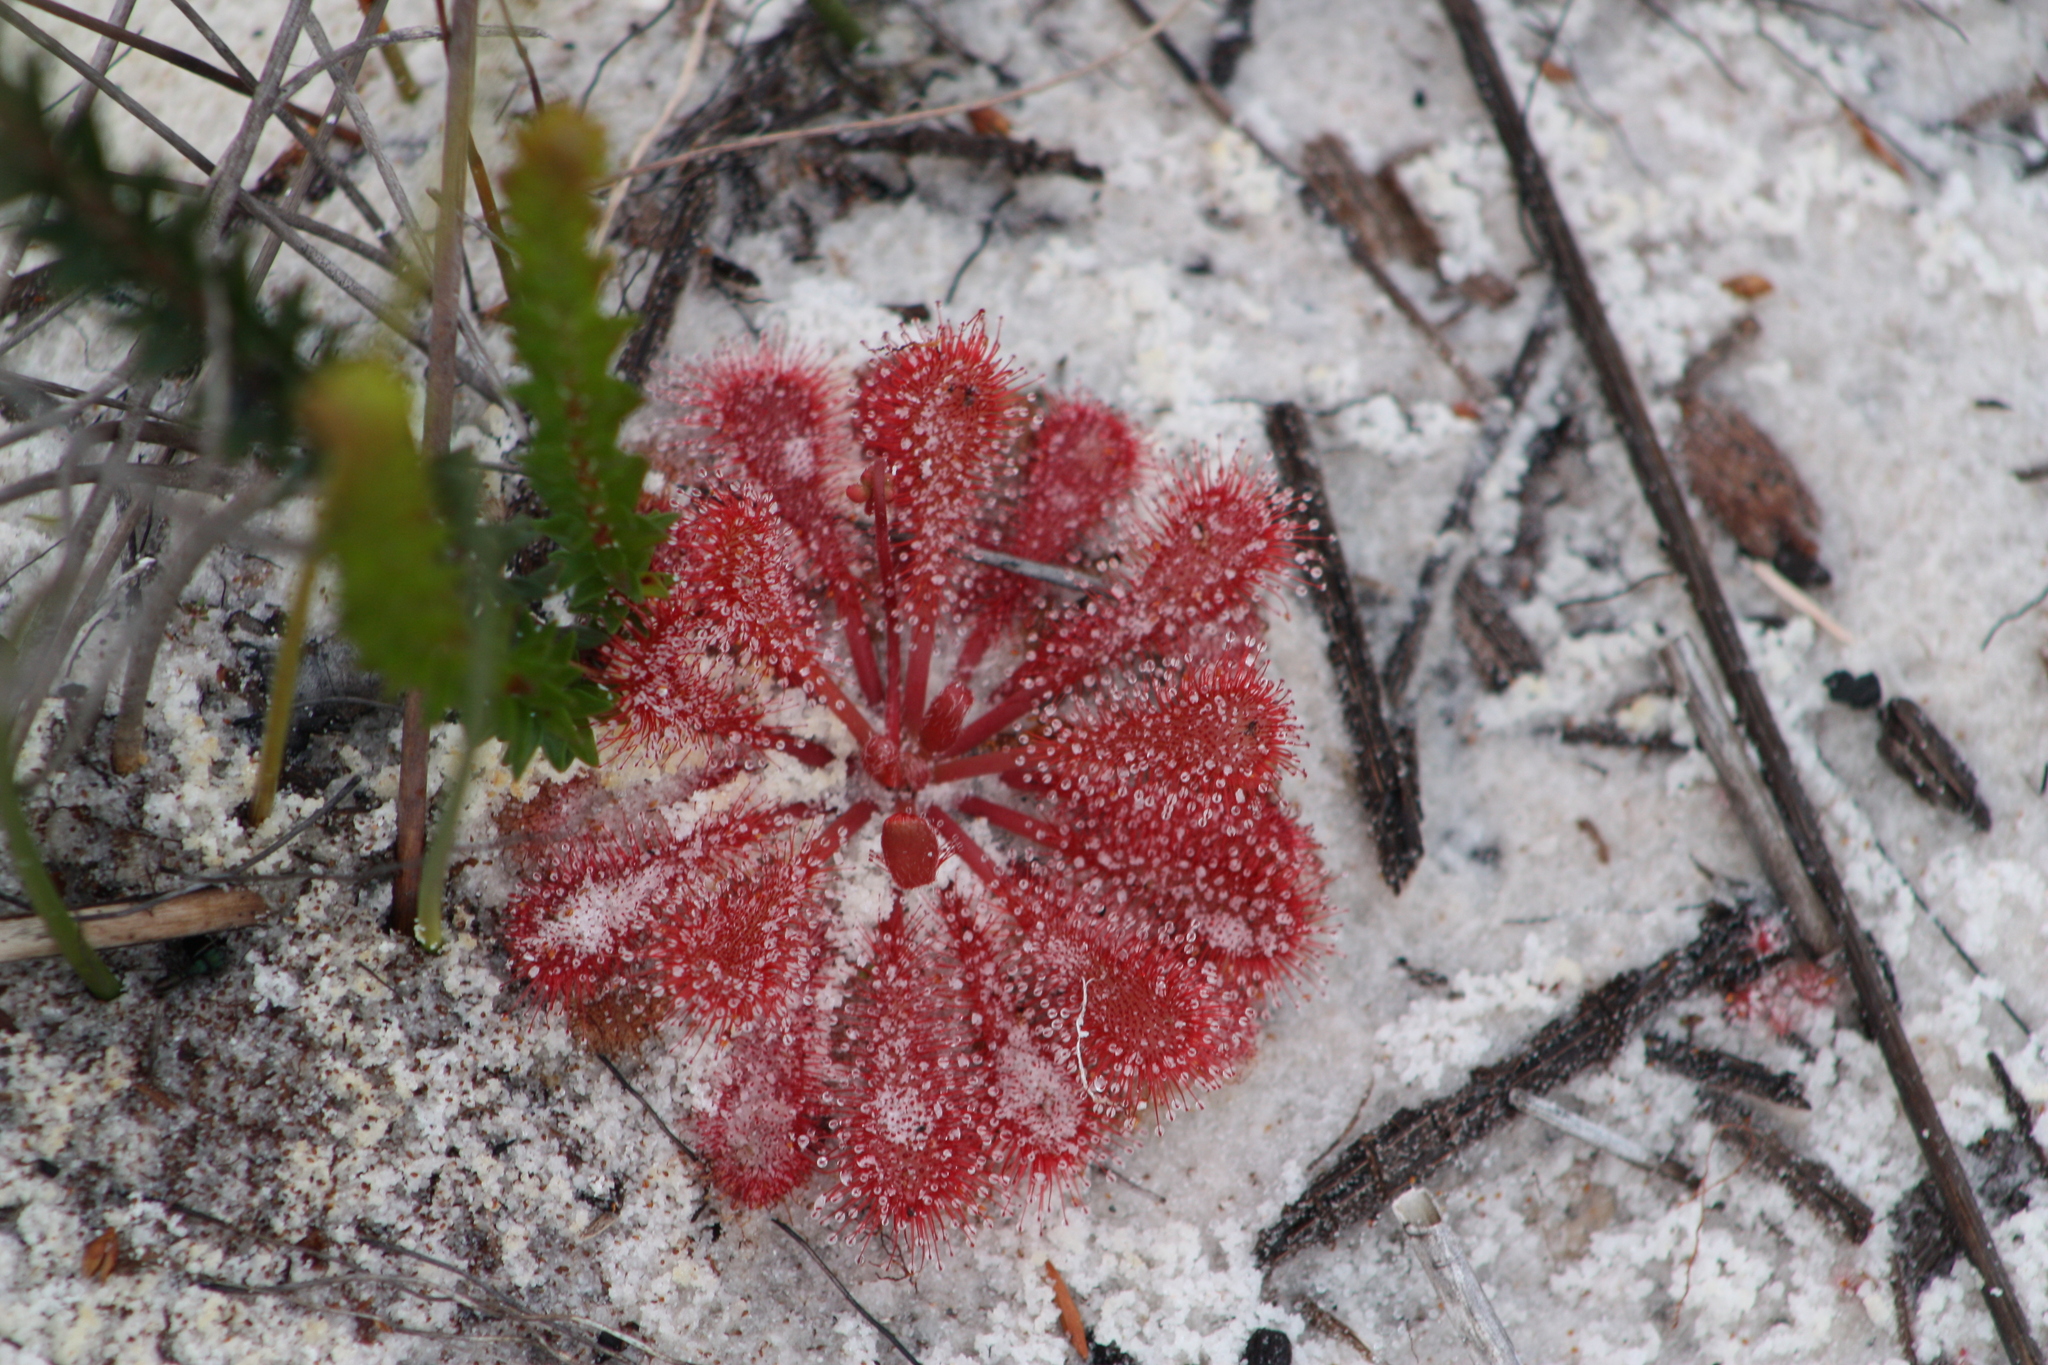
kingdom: Plantae
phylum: Tracheophyta
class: Magnoliopsida
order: Caryophyllales
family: Droseraceae
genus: Drosera
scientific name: Drosera spatulata
